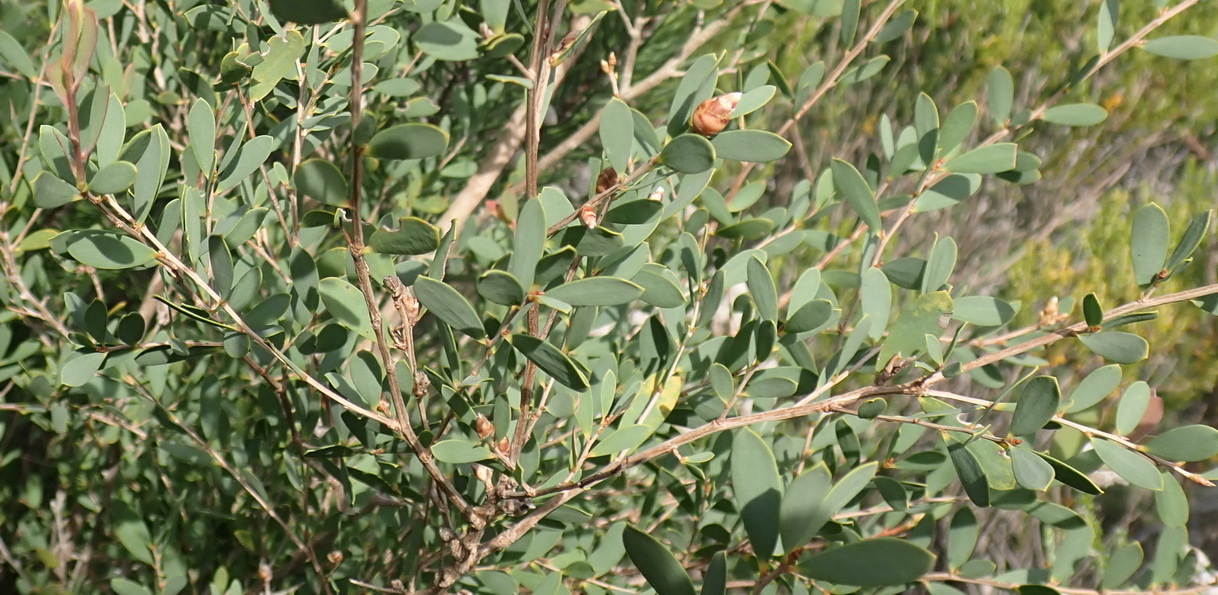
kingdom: Plantae
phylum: Tracheophyta
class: Magnoliopsida
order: Myrtales
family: Myrtaceae
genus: Leptospermum
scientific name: Leptospermum laevigatum
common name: Australian teatree
